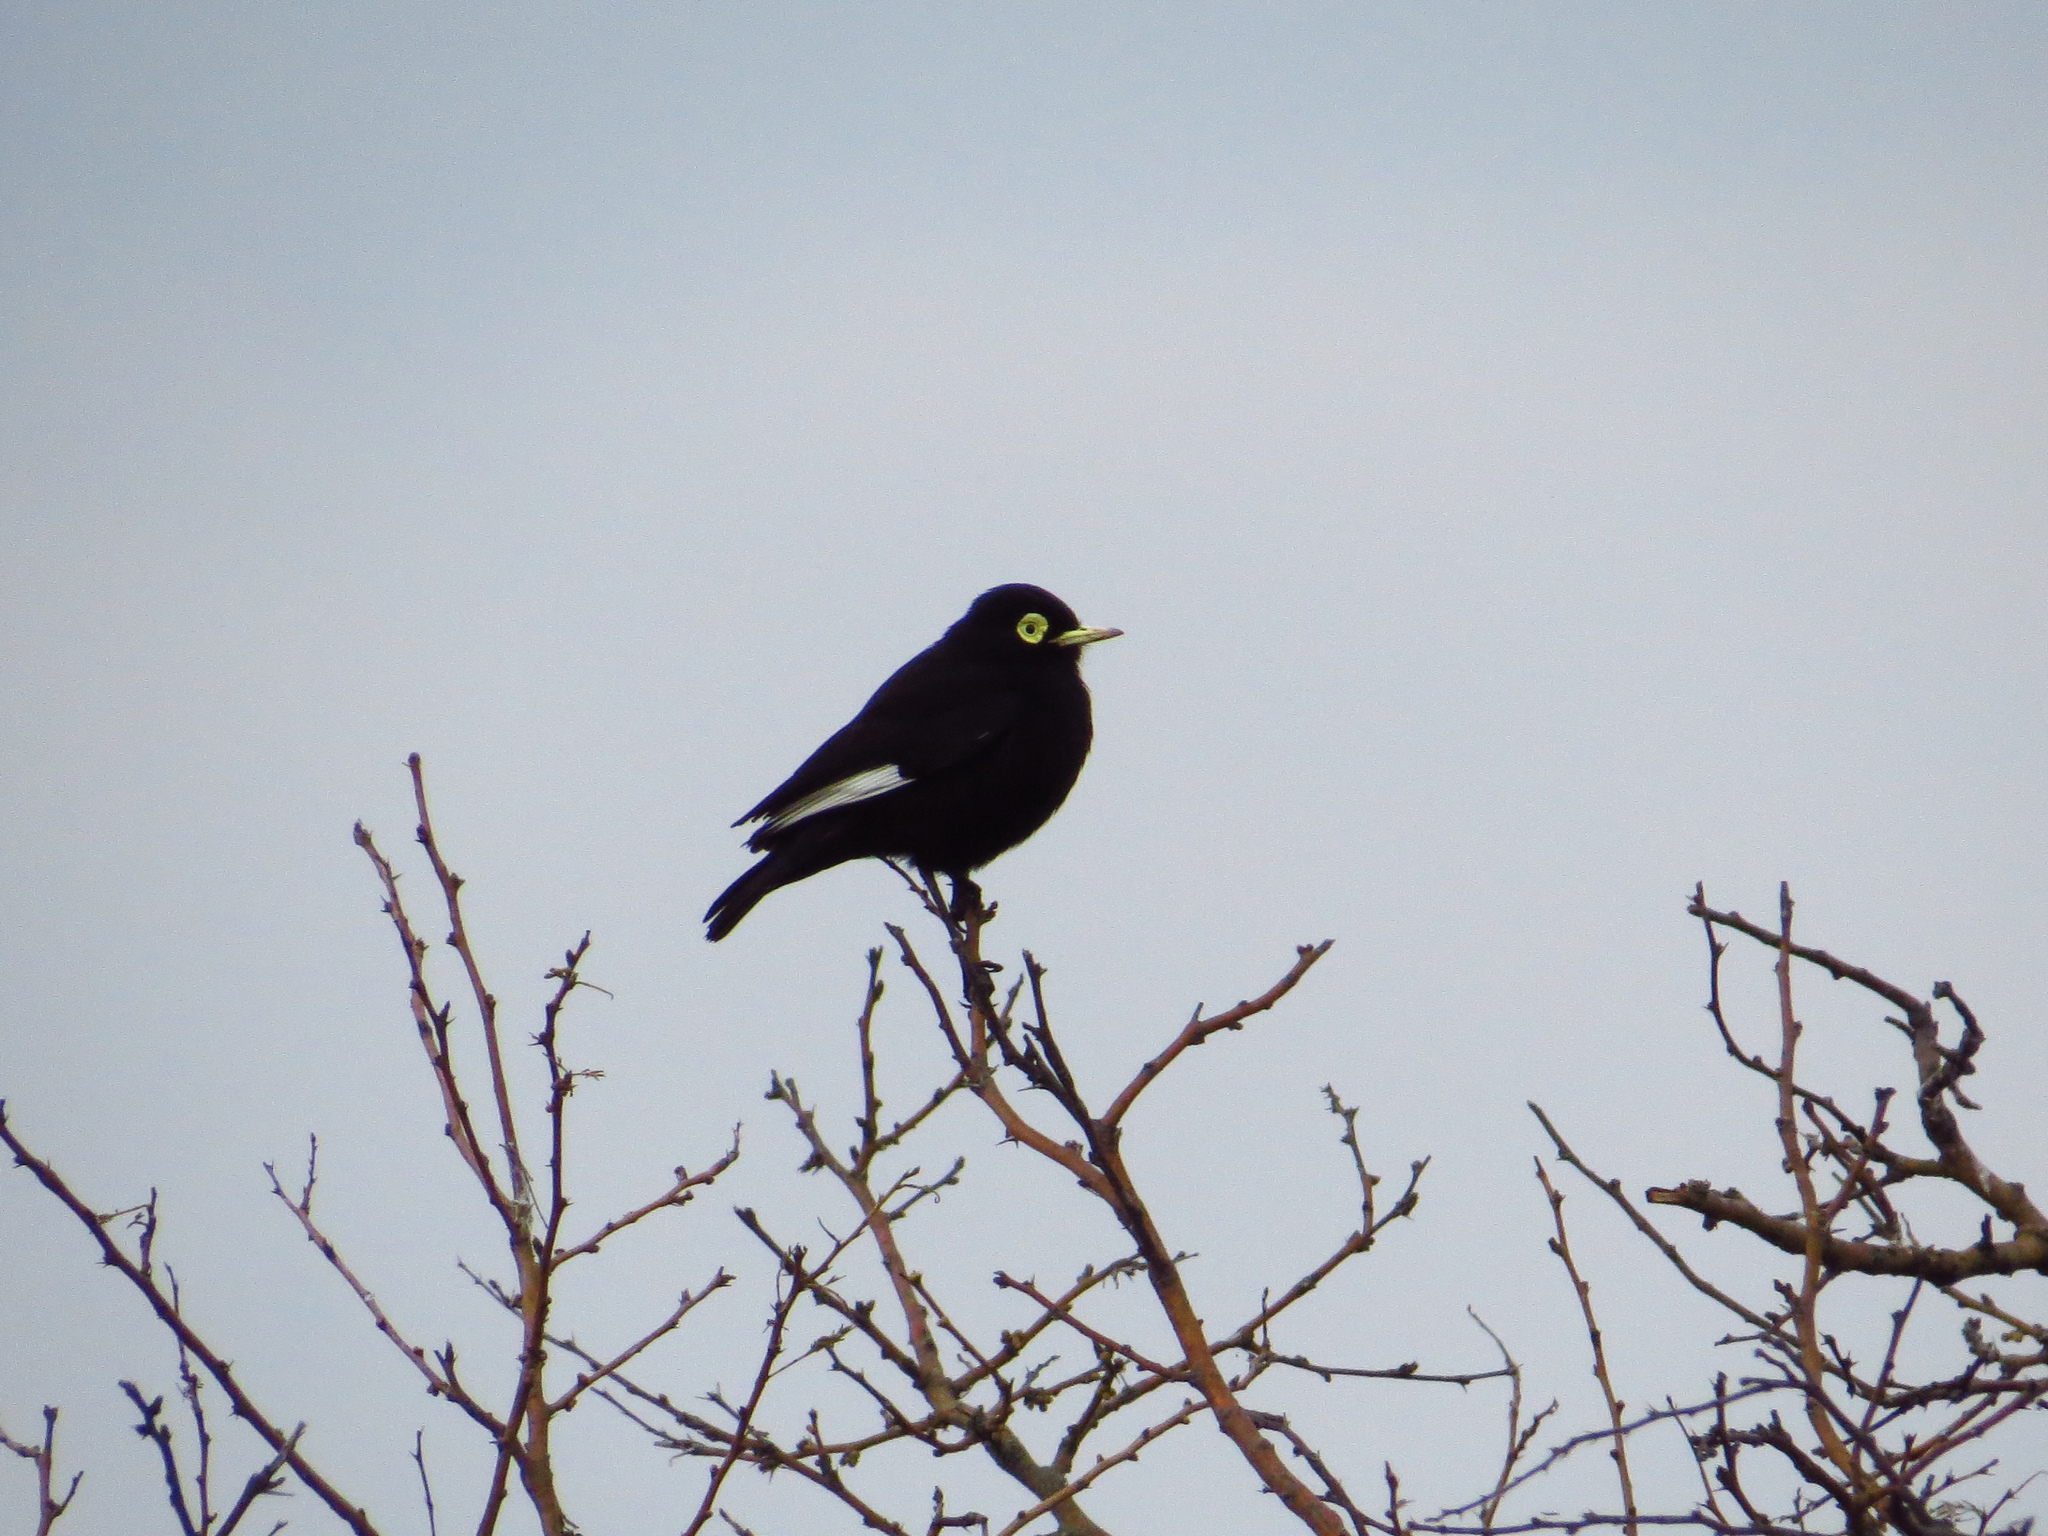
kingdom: Animalia
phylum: Chordata
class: Aves
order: Passeriformes
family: Tyrannidae
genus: Hymenops
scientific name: Hymenops perspicillatus
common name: Spectacled tyrant
